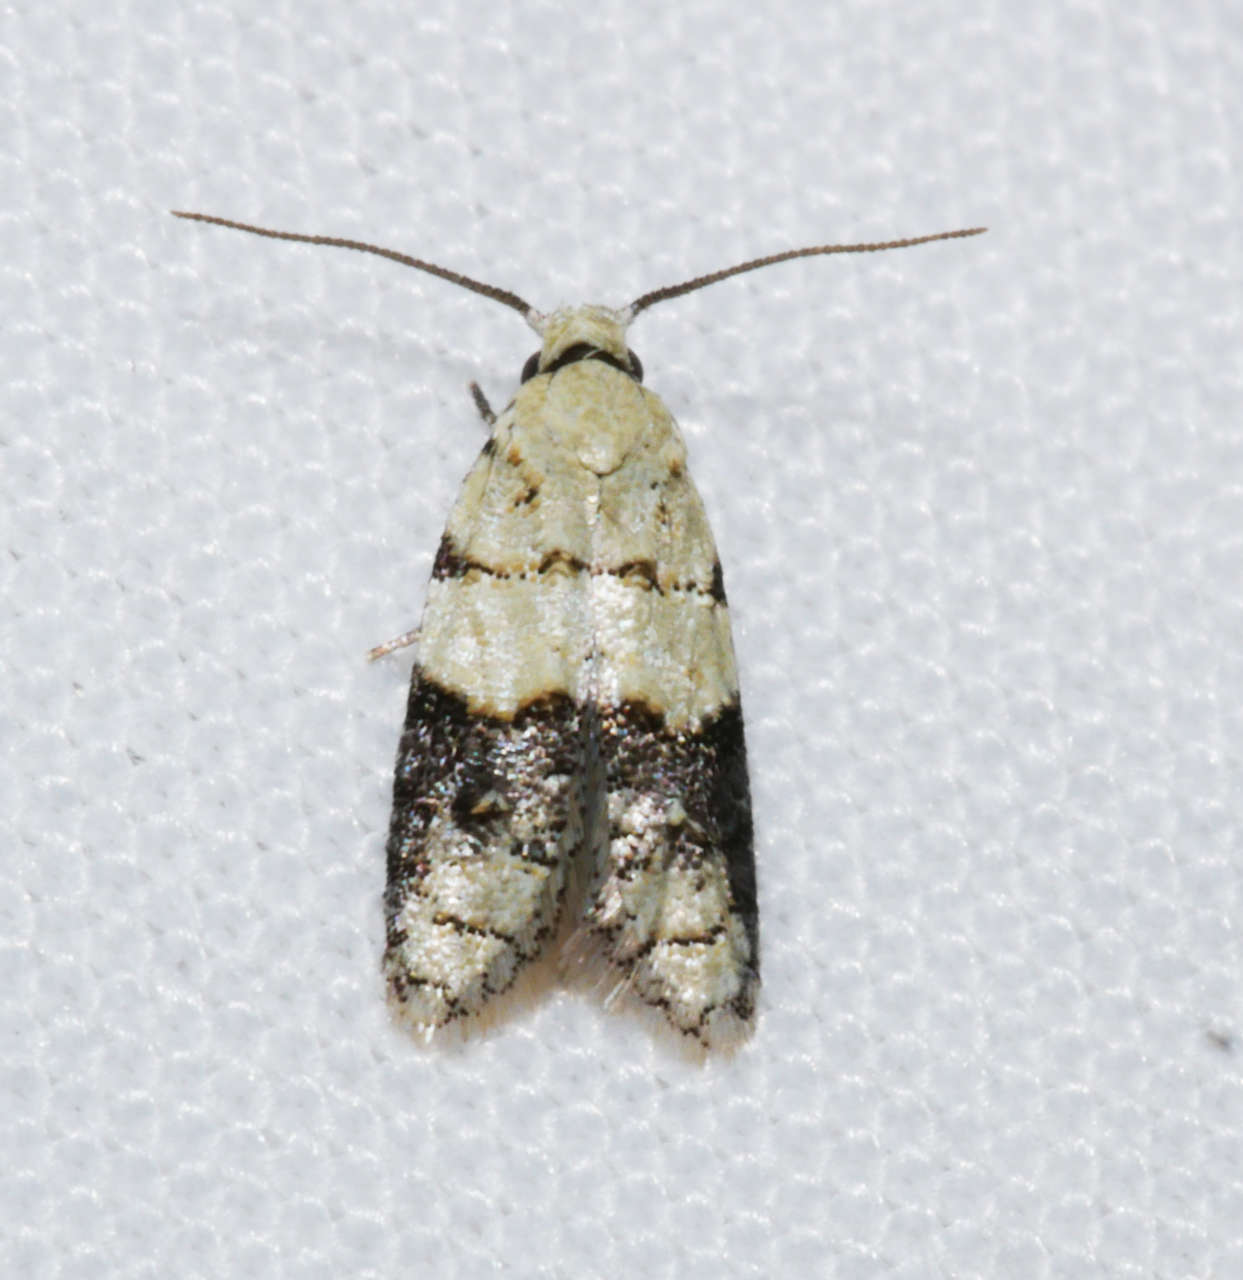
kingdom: Animalia
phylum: Arthropoda
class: Insecta
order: Lepidoptera
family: Tortricidae
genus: Tracholena
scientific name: Tracholena sulfurosa
